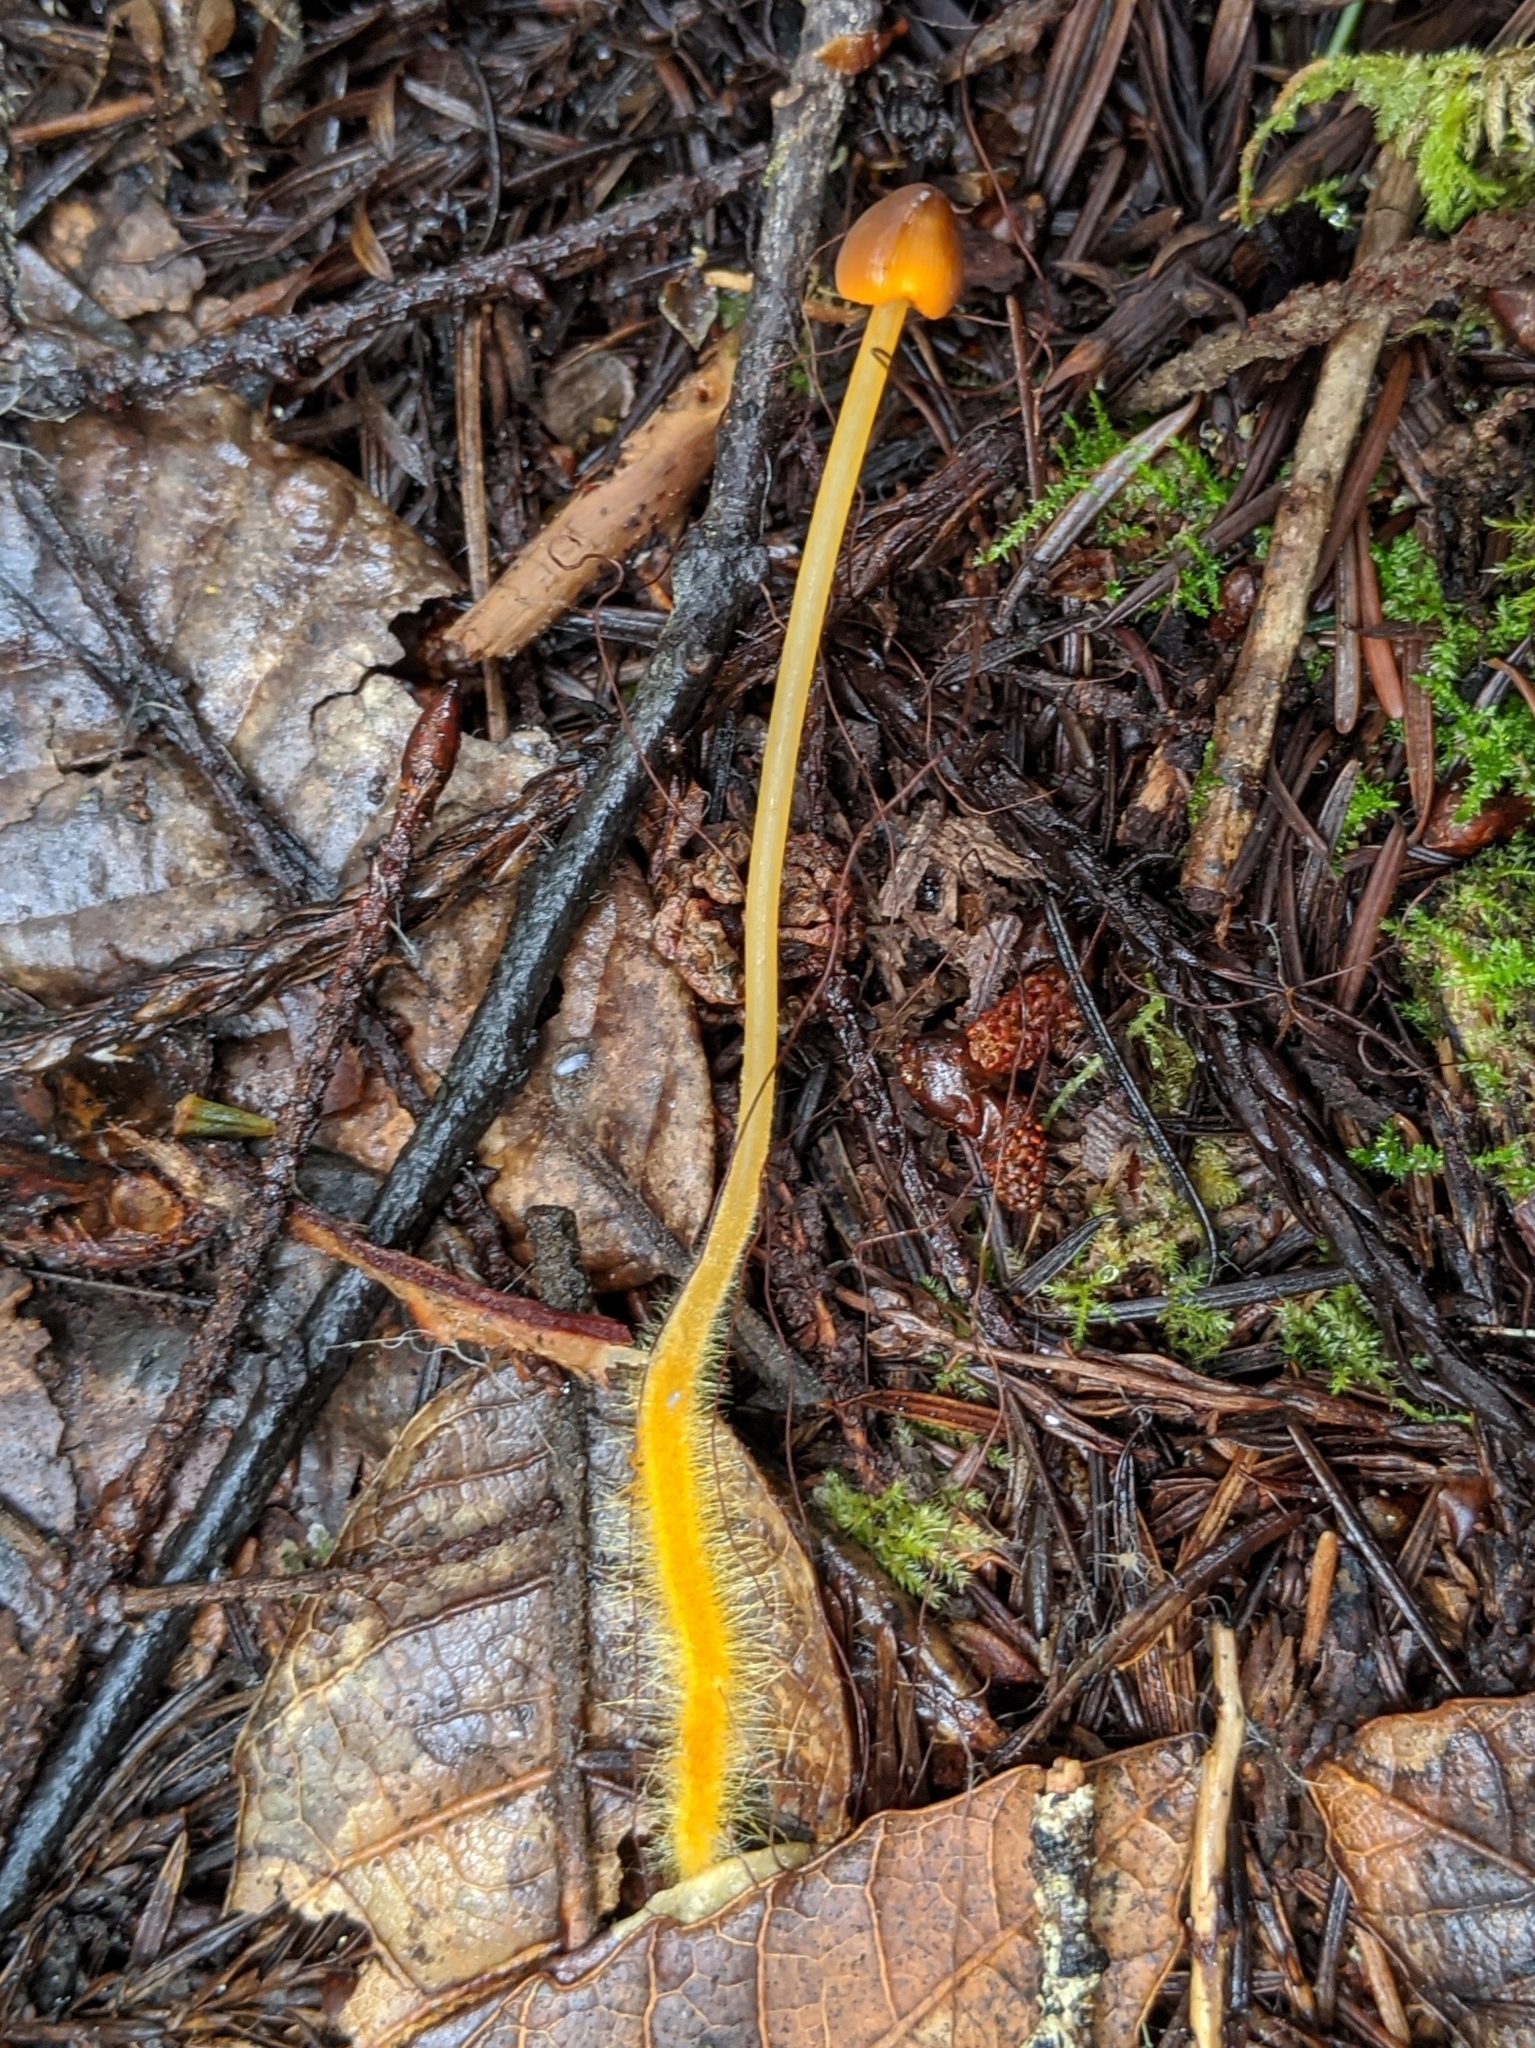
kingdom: Fungi
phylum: Basidiomycota
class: Agaricomycetes
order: Agaricales
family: Mycenaceae
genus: Mycena
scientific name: Mycena strobilinoidea
